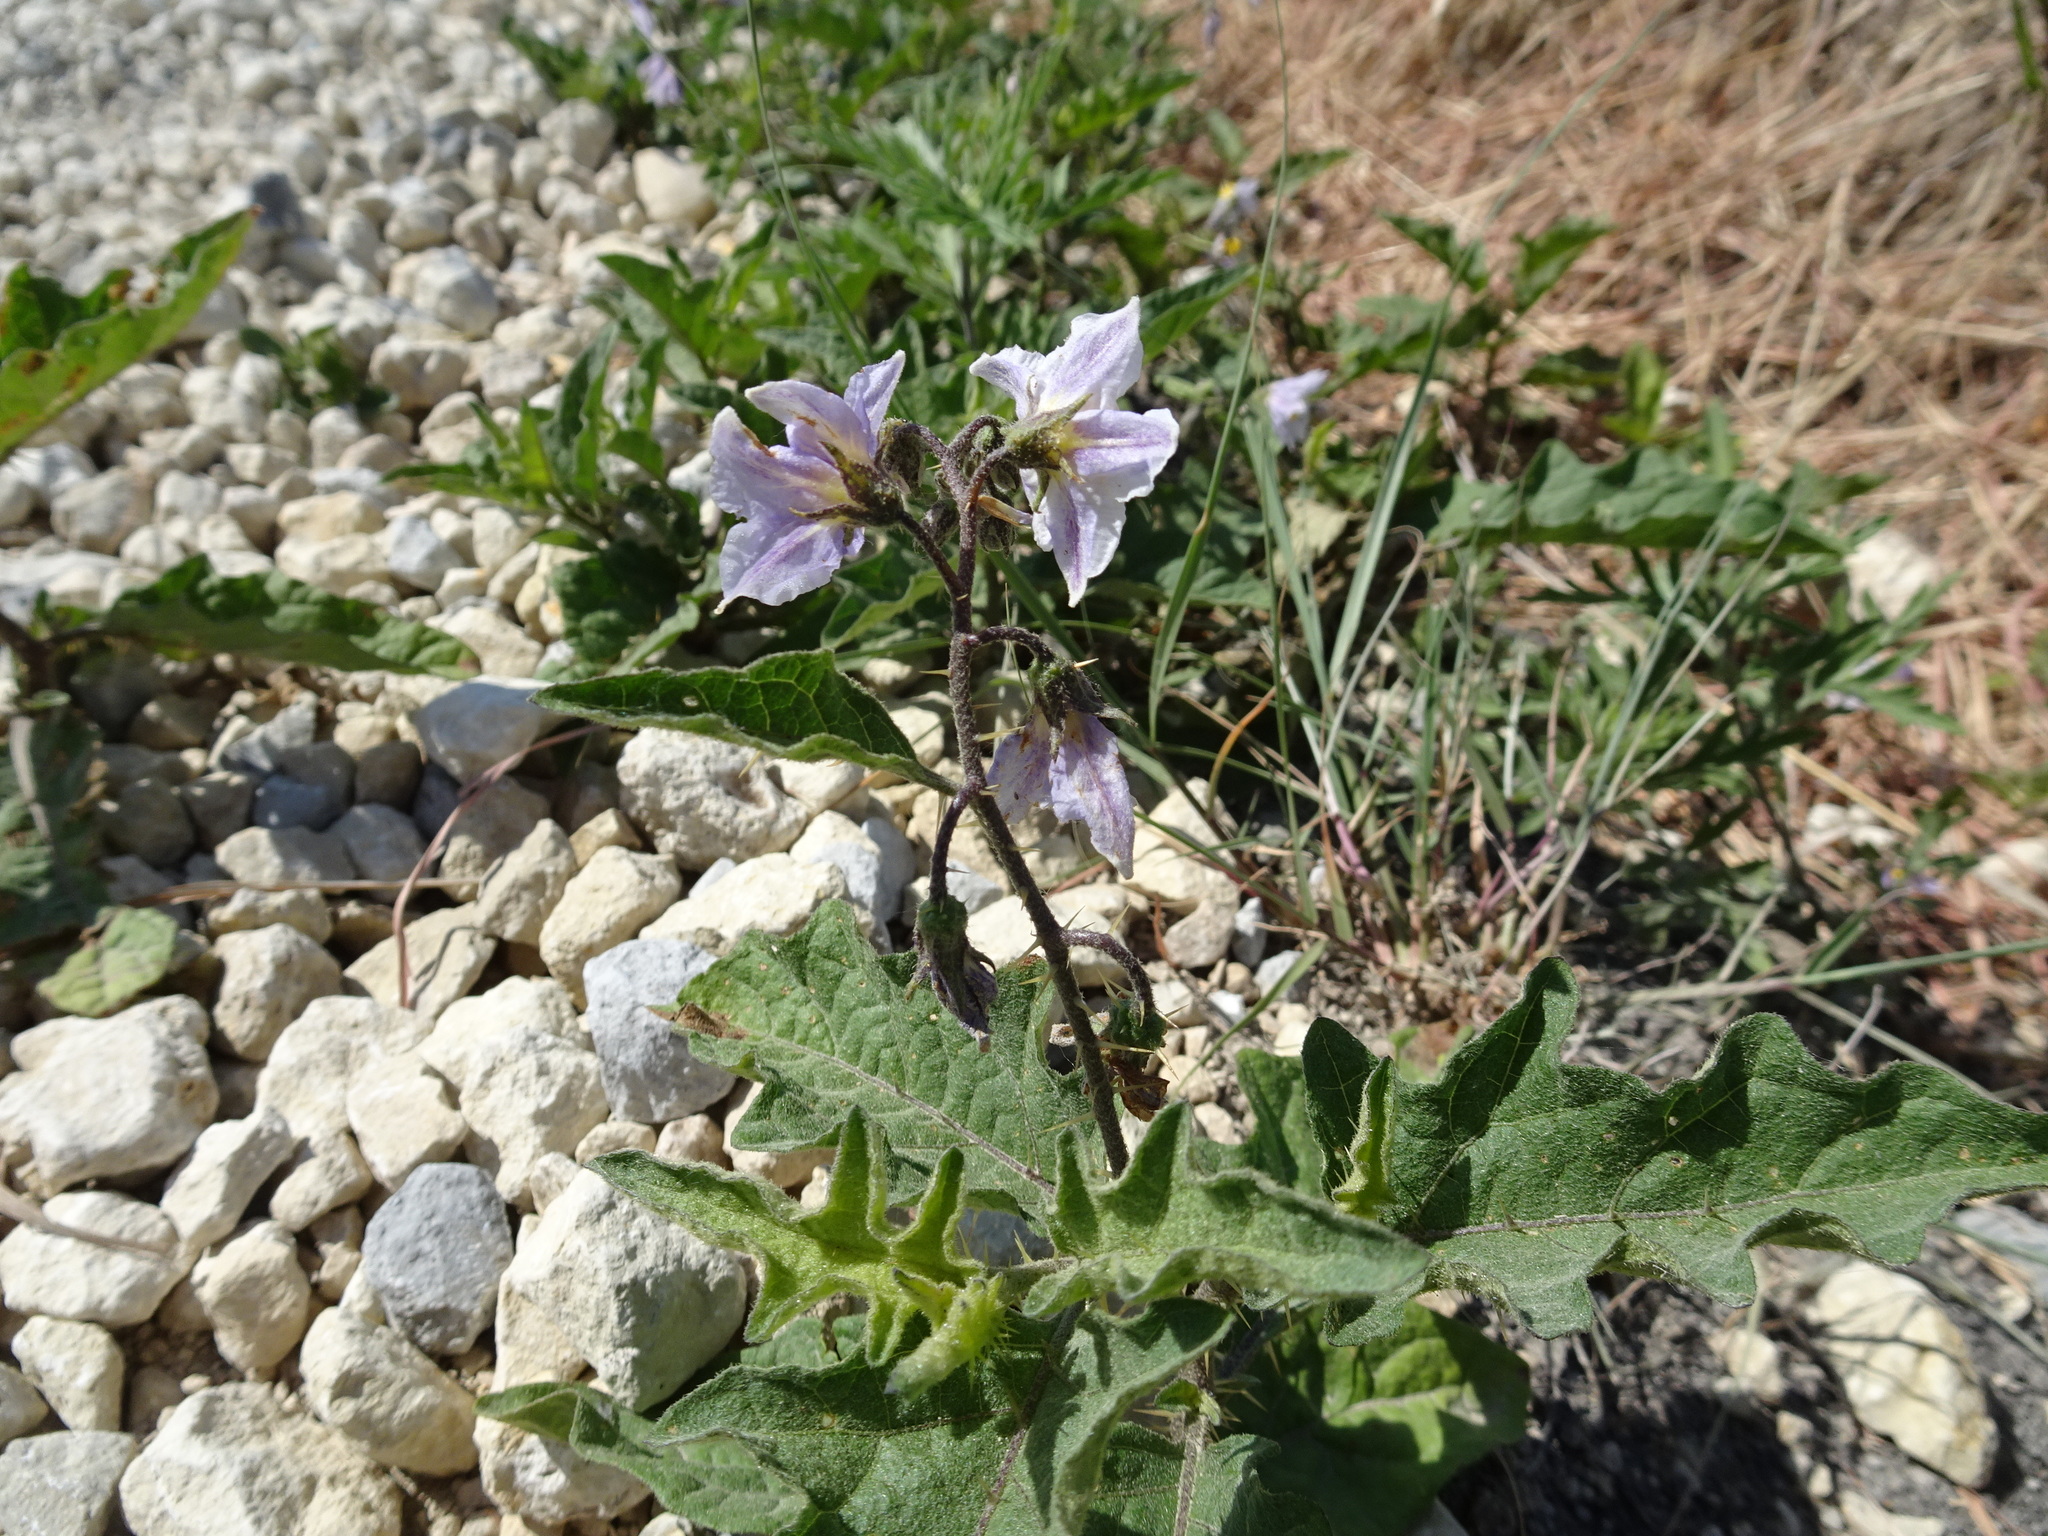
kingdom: Plantae
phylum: Tracheophyta
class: Magnoliopsida
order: Solanales
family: Solanaceae
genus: Solanum
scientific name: Solanum carolinense
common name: Horse-nettle
